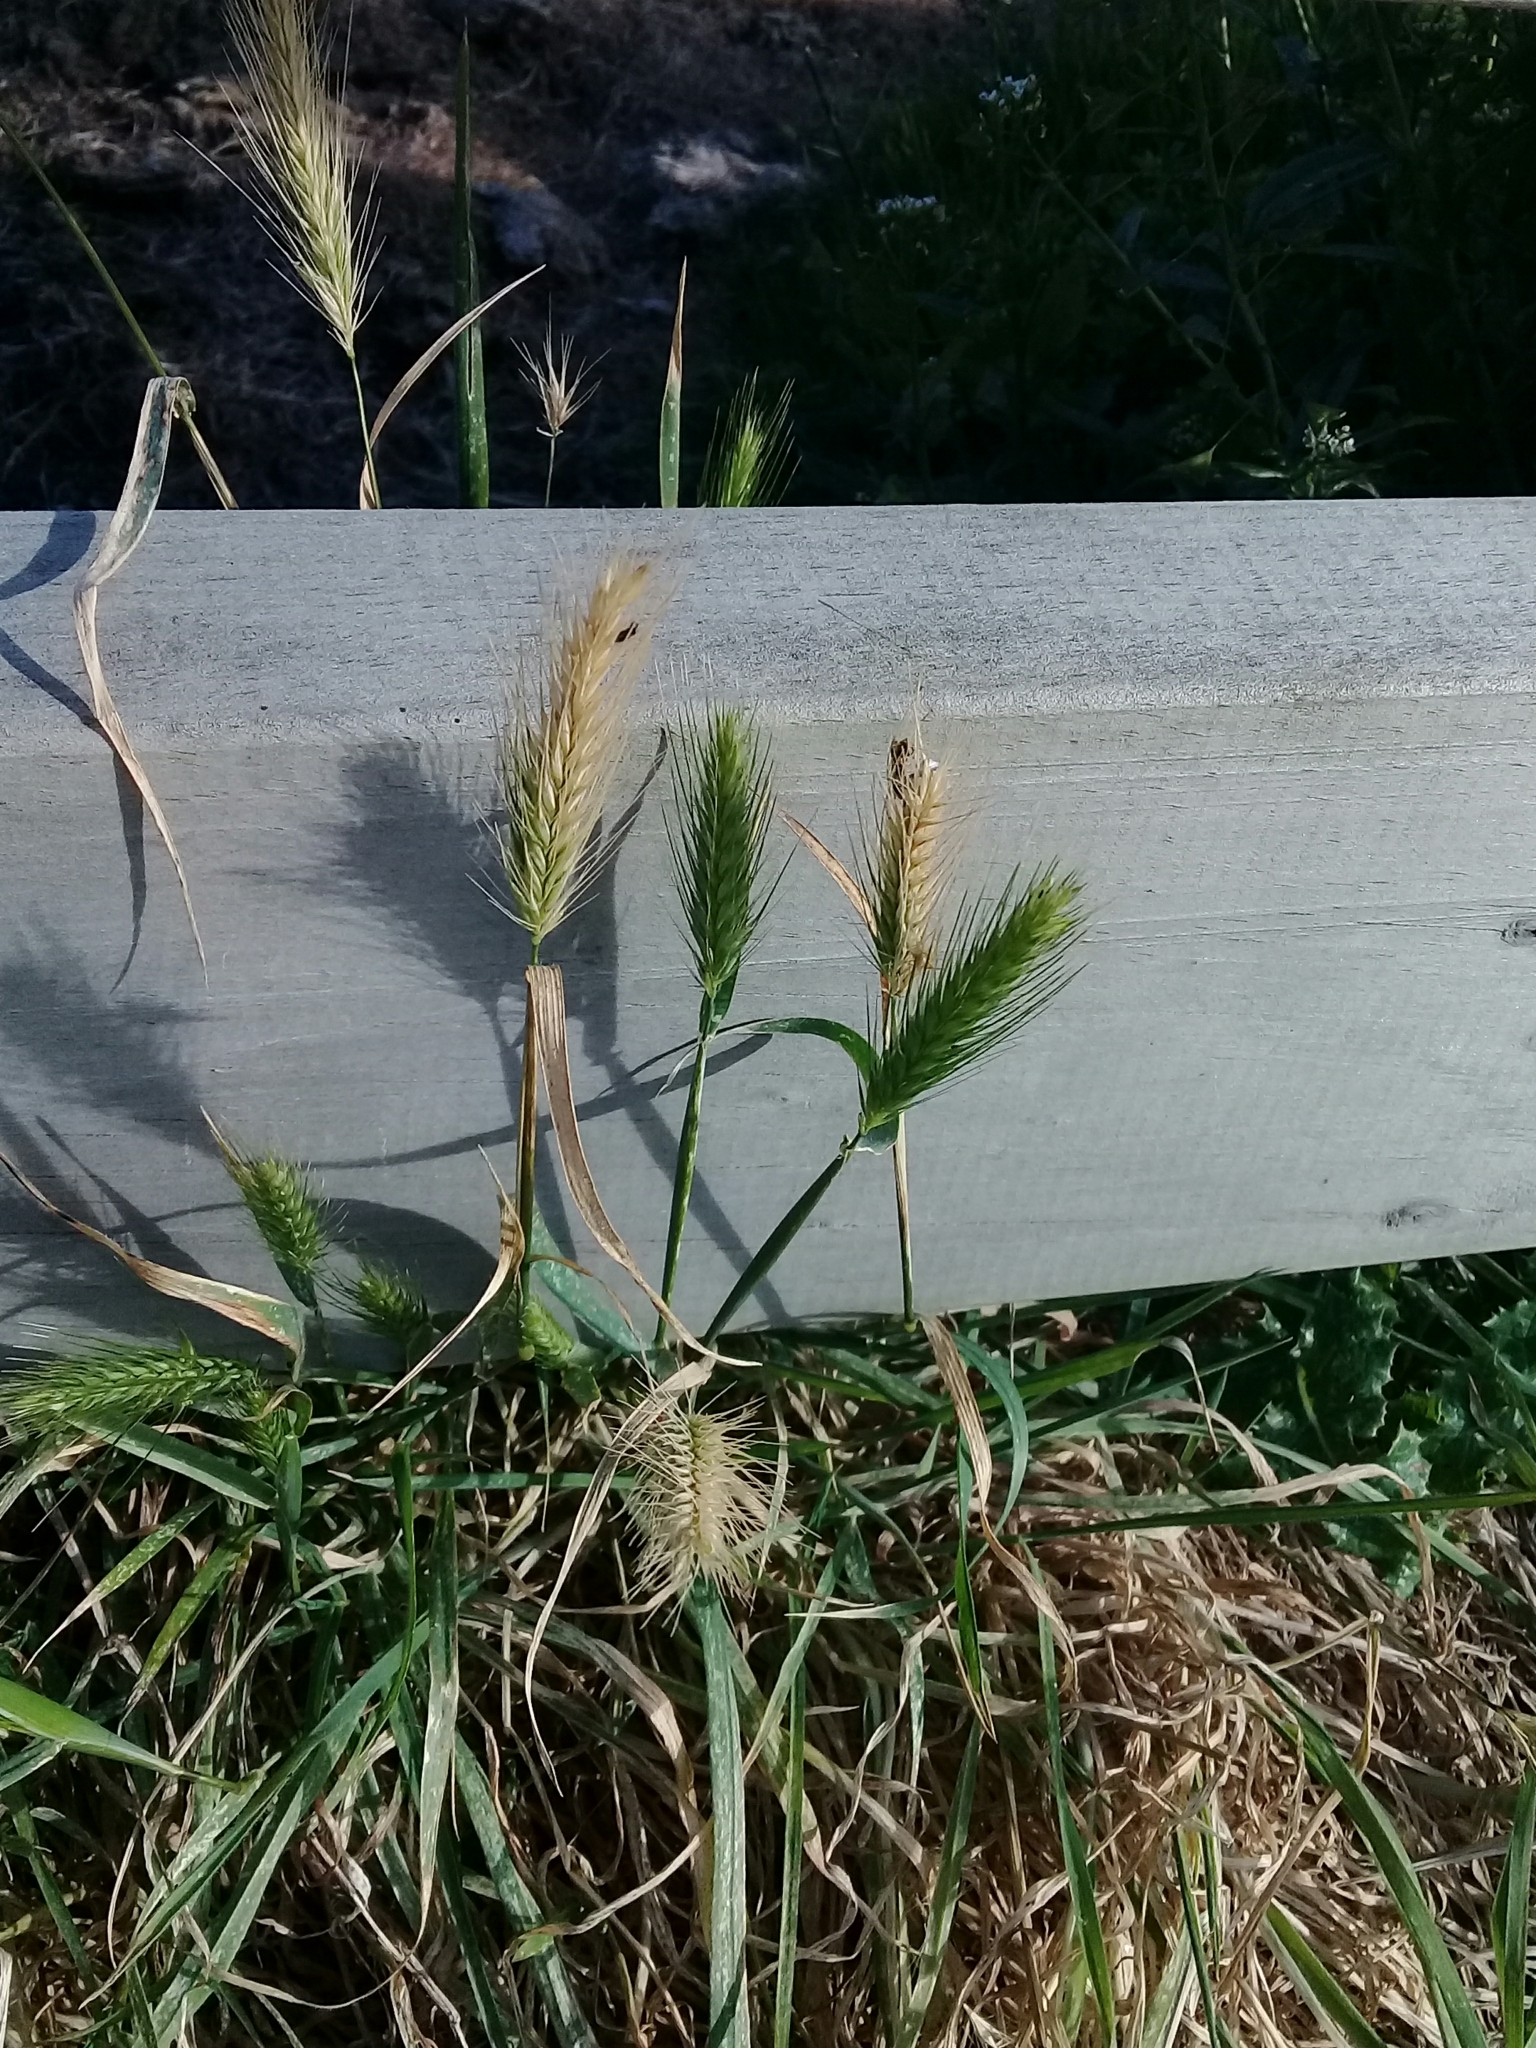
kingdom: Plantae
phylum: Tracheophyta
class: Liliopsida
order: Poales
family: Poaceae
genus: Hordeum
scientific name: Hordeum murinum
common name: Wall barley
